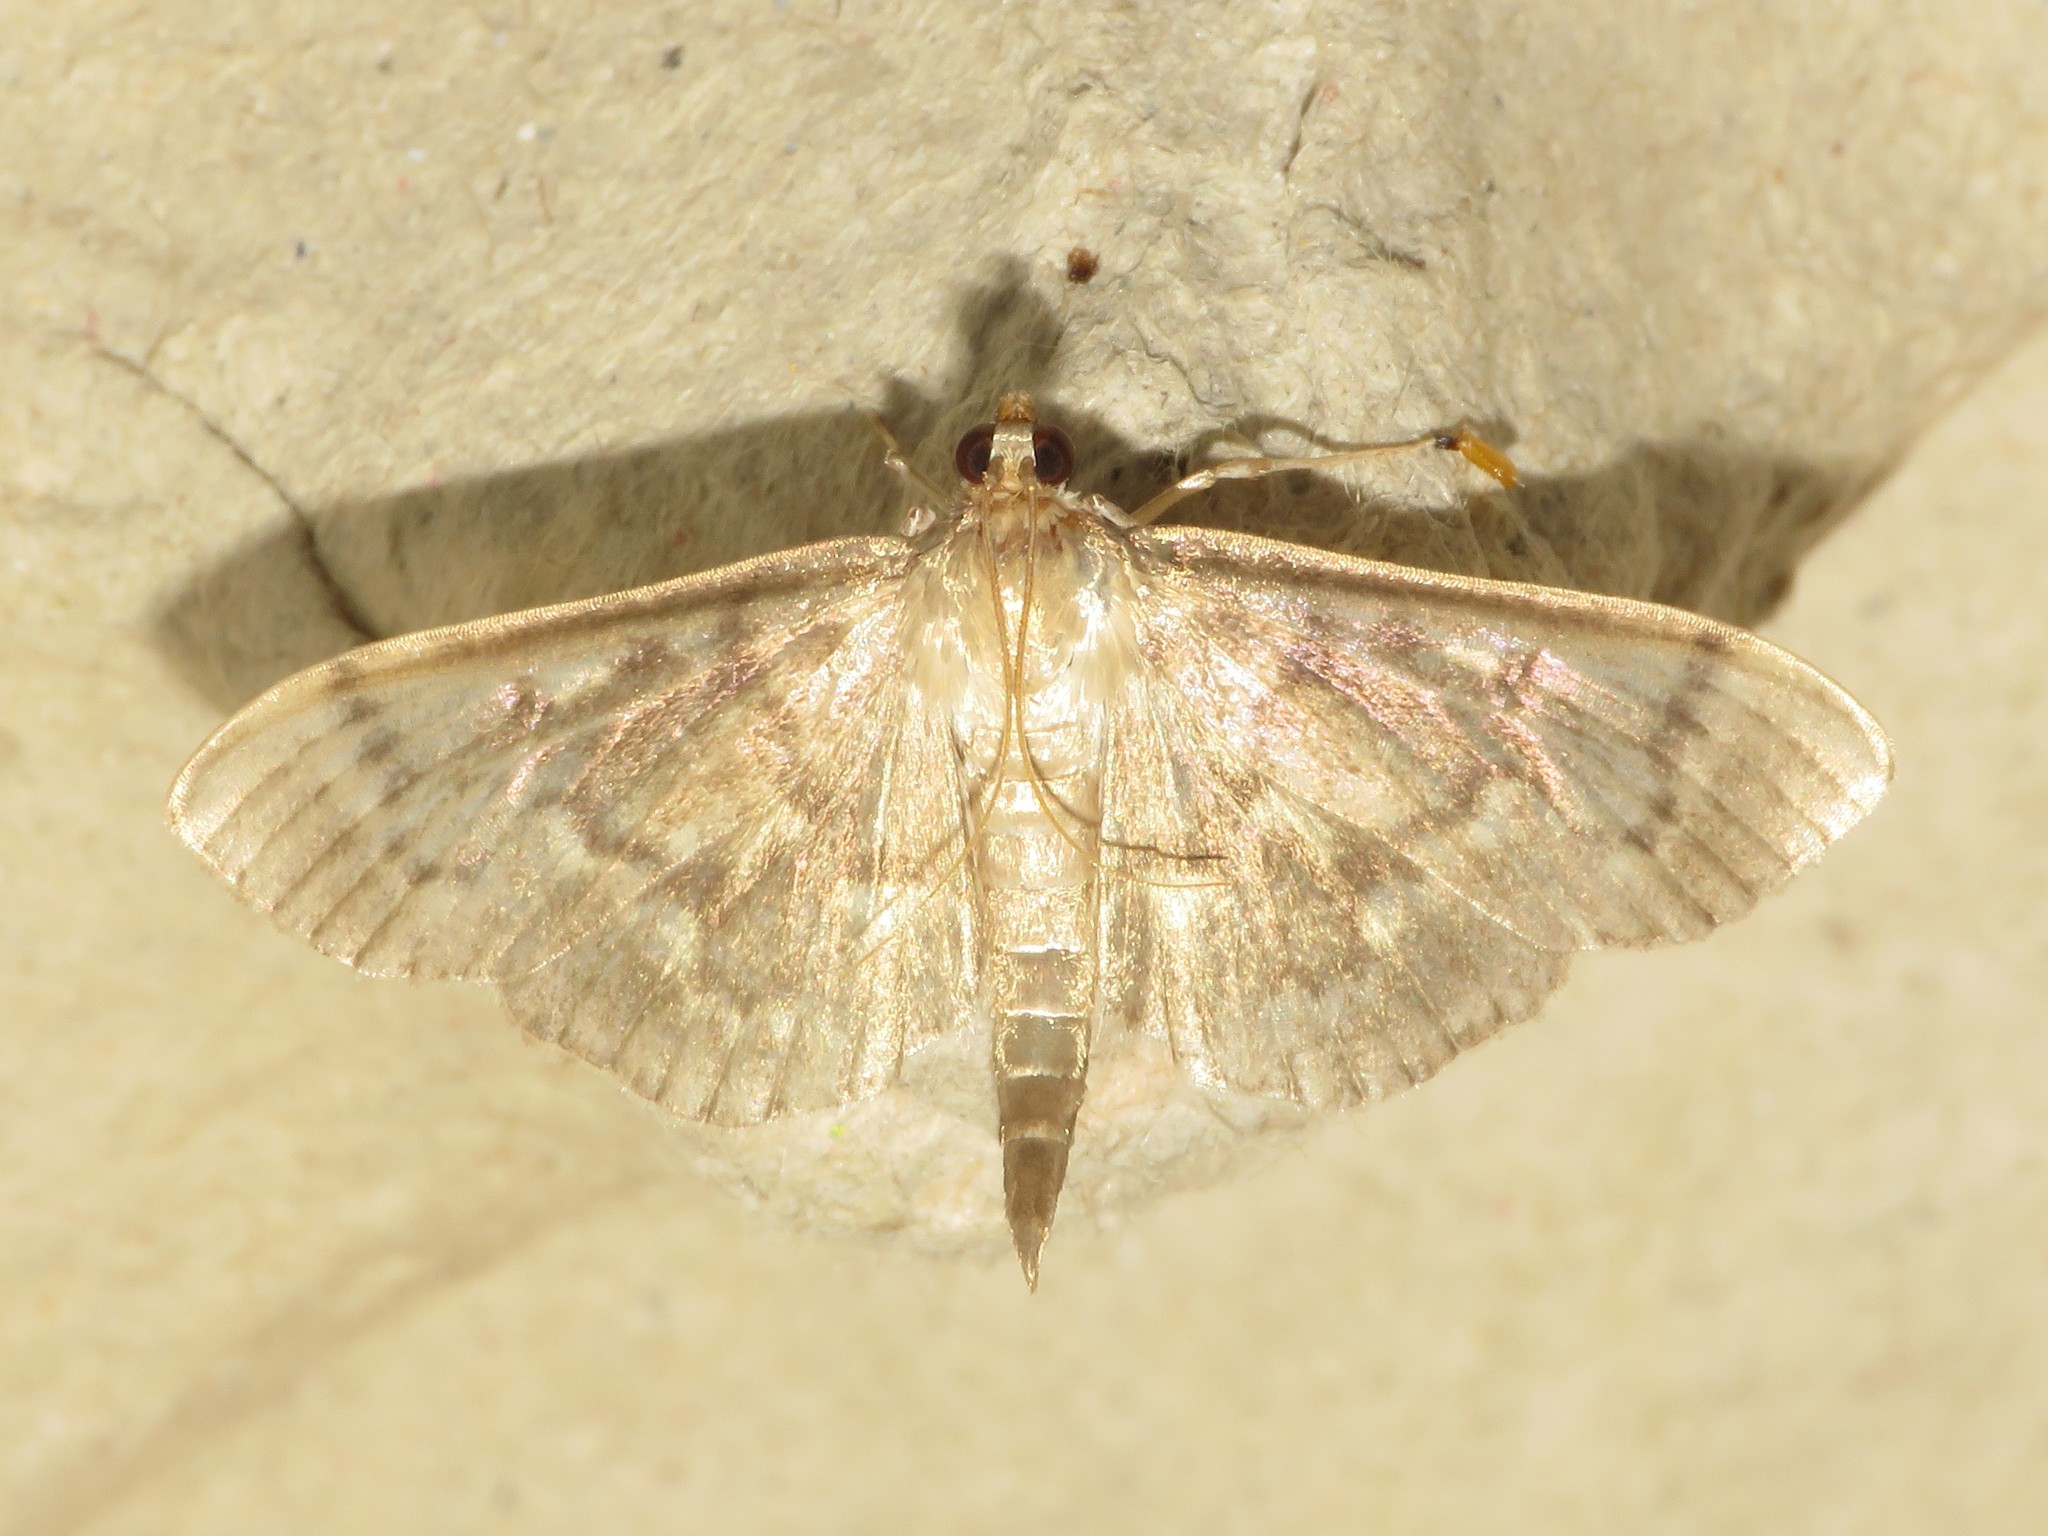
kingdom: Animalia
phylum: Arthropoda
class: Insecta
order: Lepidoptera
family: Crambidae
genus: Herpetogramma
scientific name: Herpetogramma aeglealis
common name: Serpentine webworm moth
